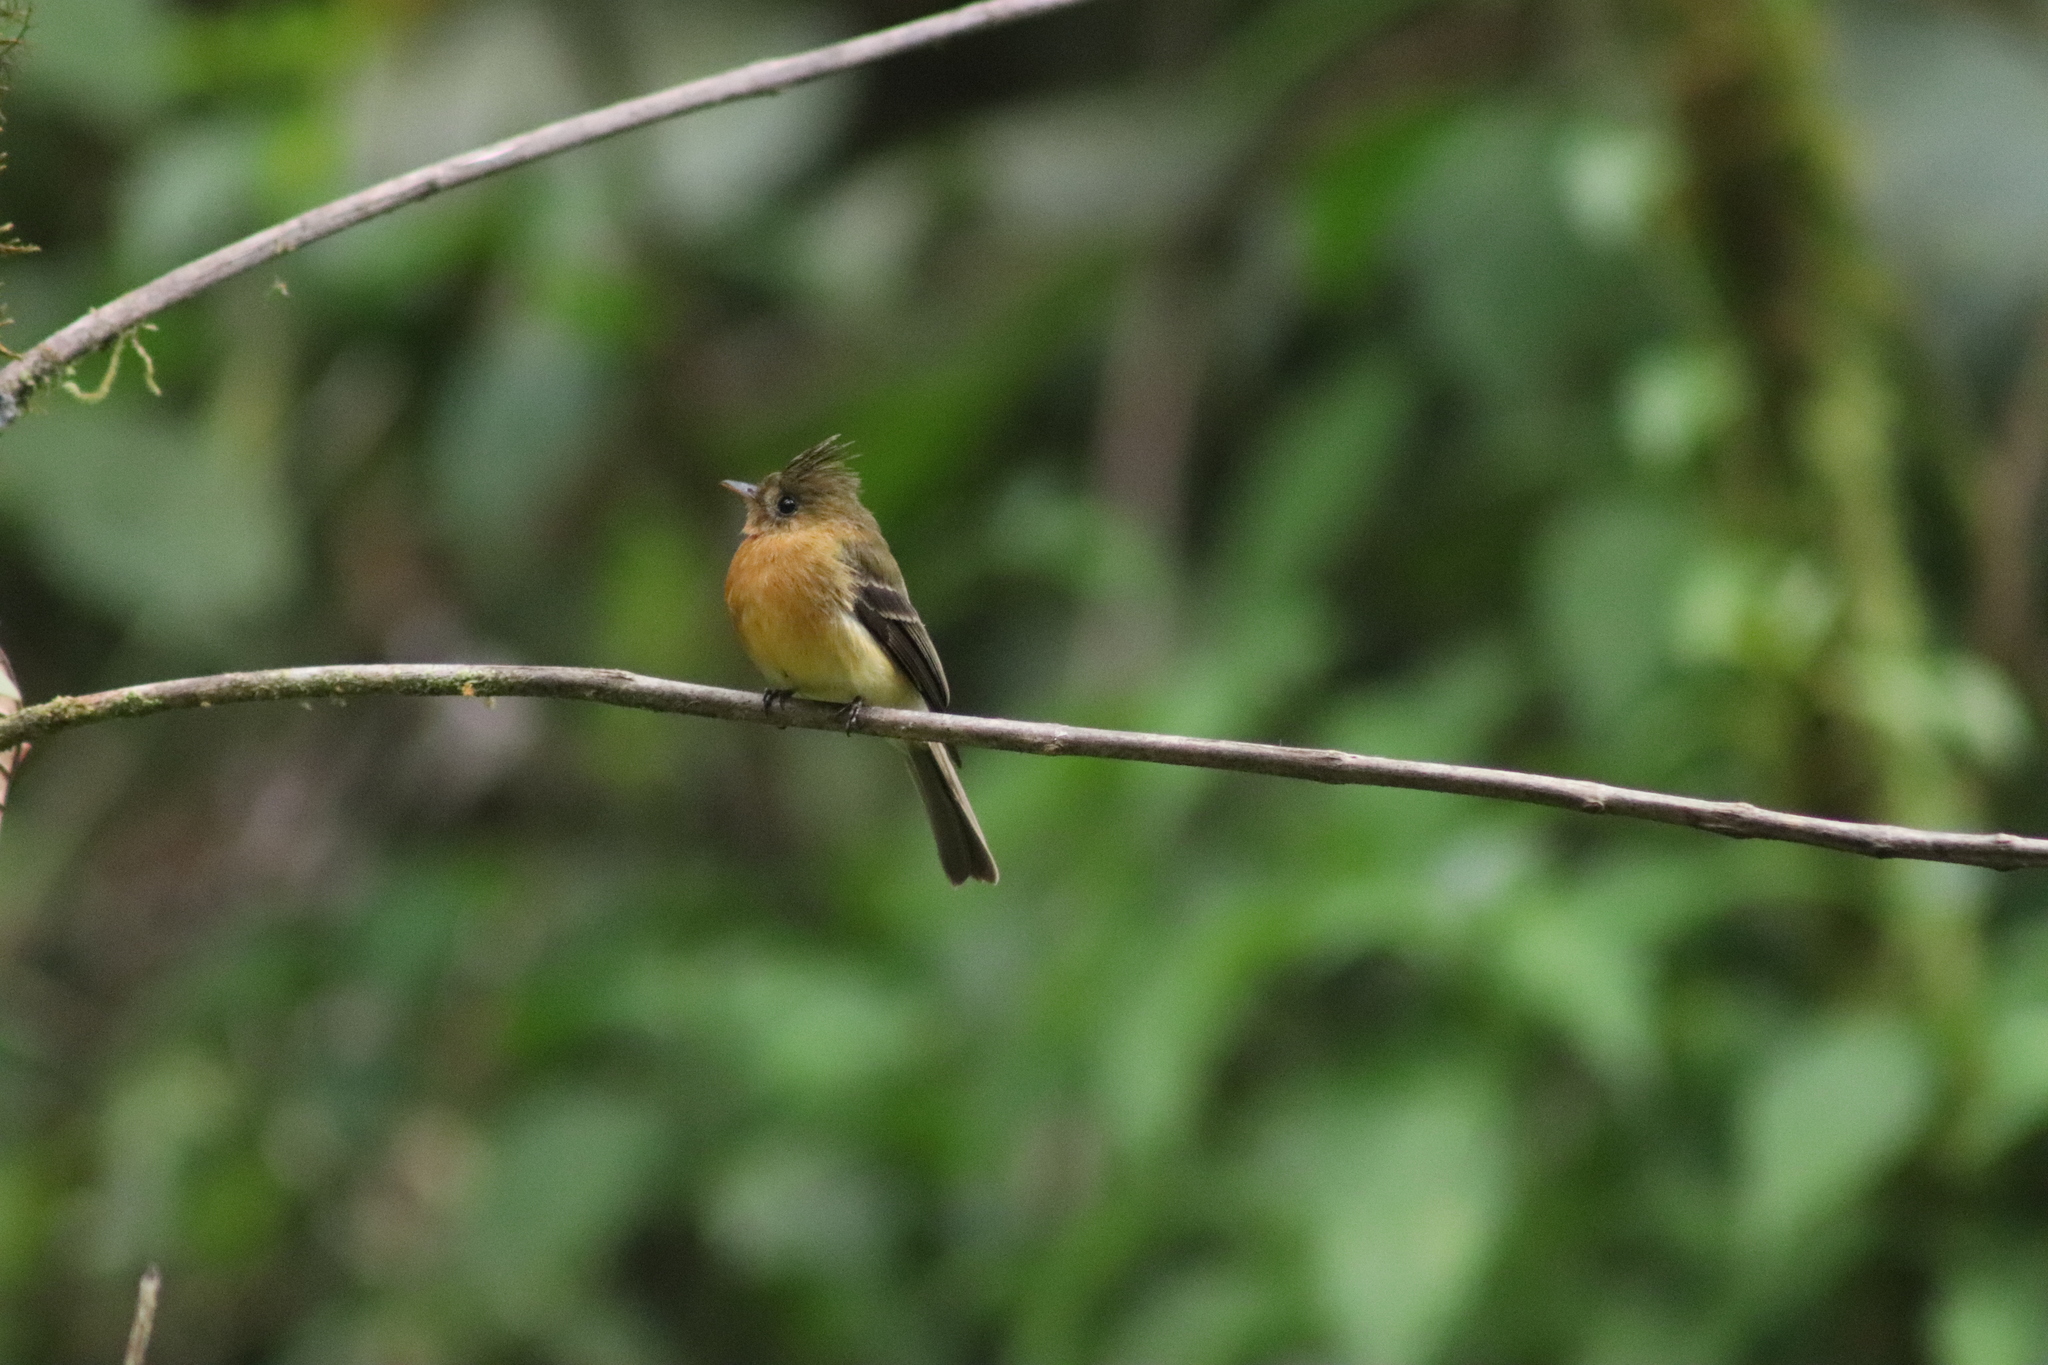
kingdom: Animalia
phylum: Chordata
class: Aves
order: Passeriformes
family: Tyrannidae
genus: Mitrephanes
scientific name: Mitrephanes phaeocercus
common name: Northern tufted flycatcher
